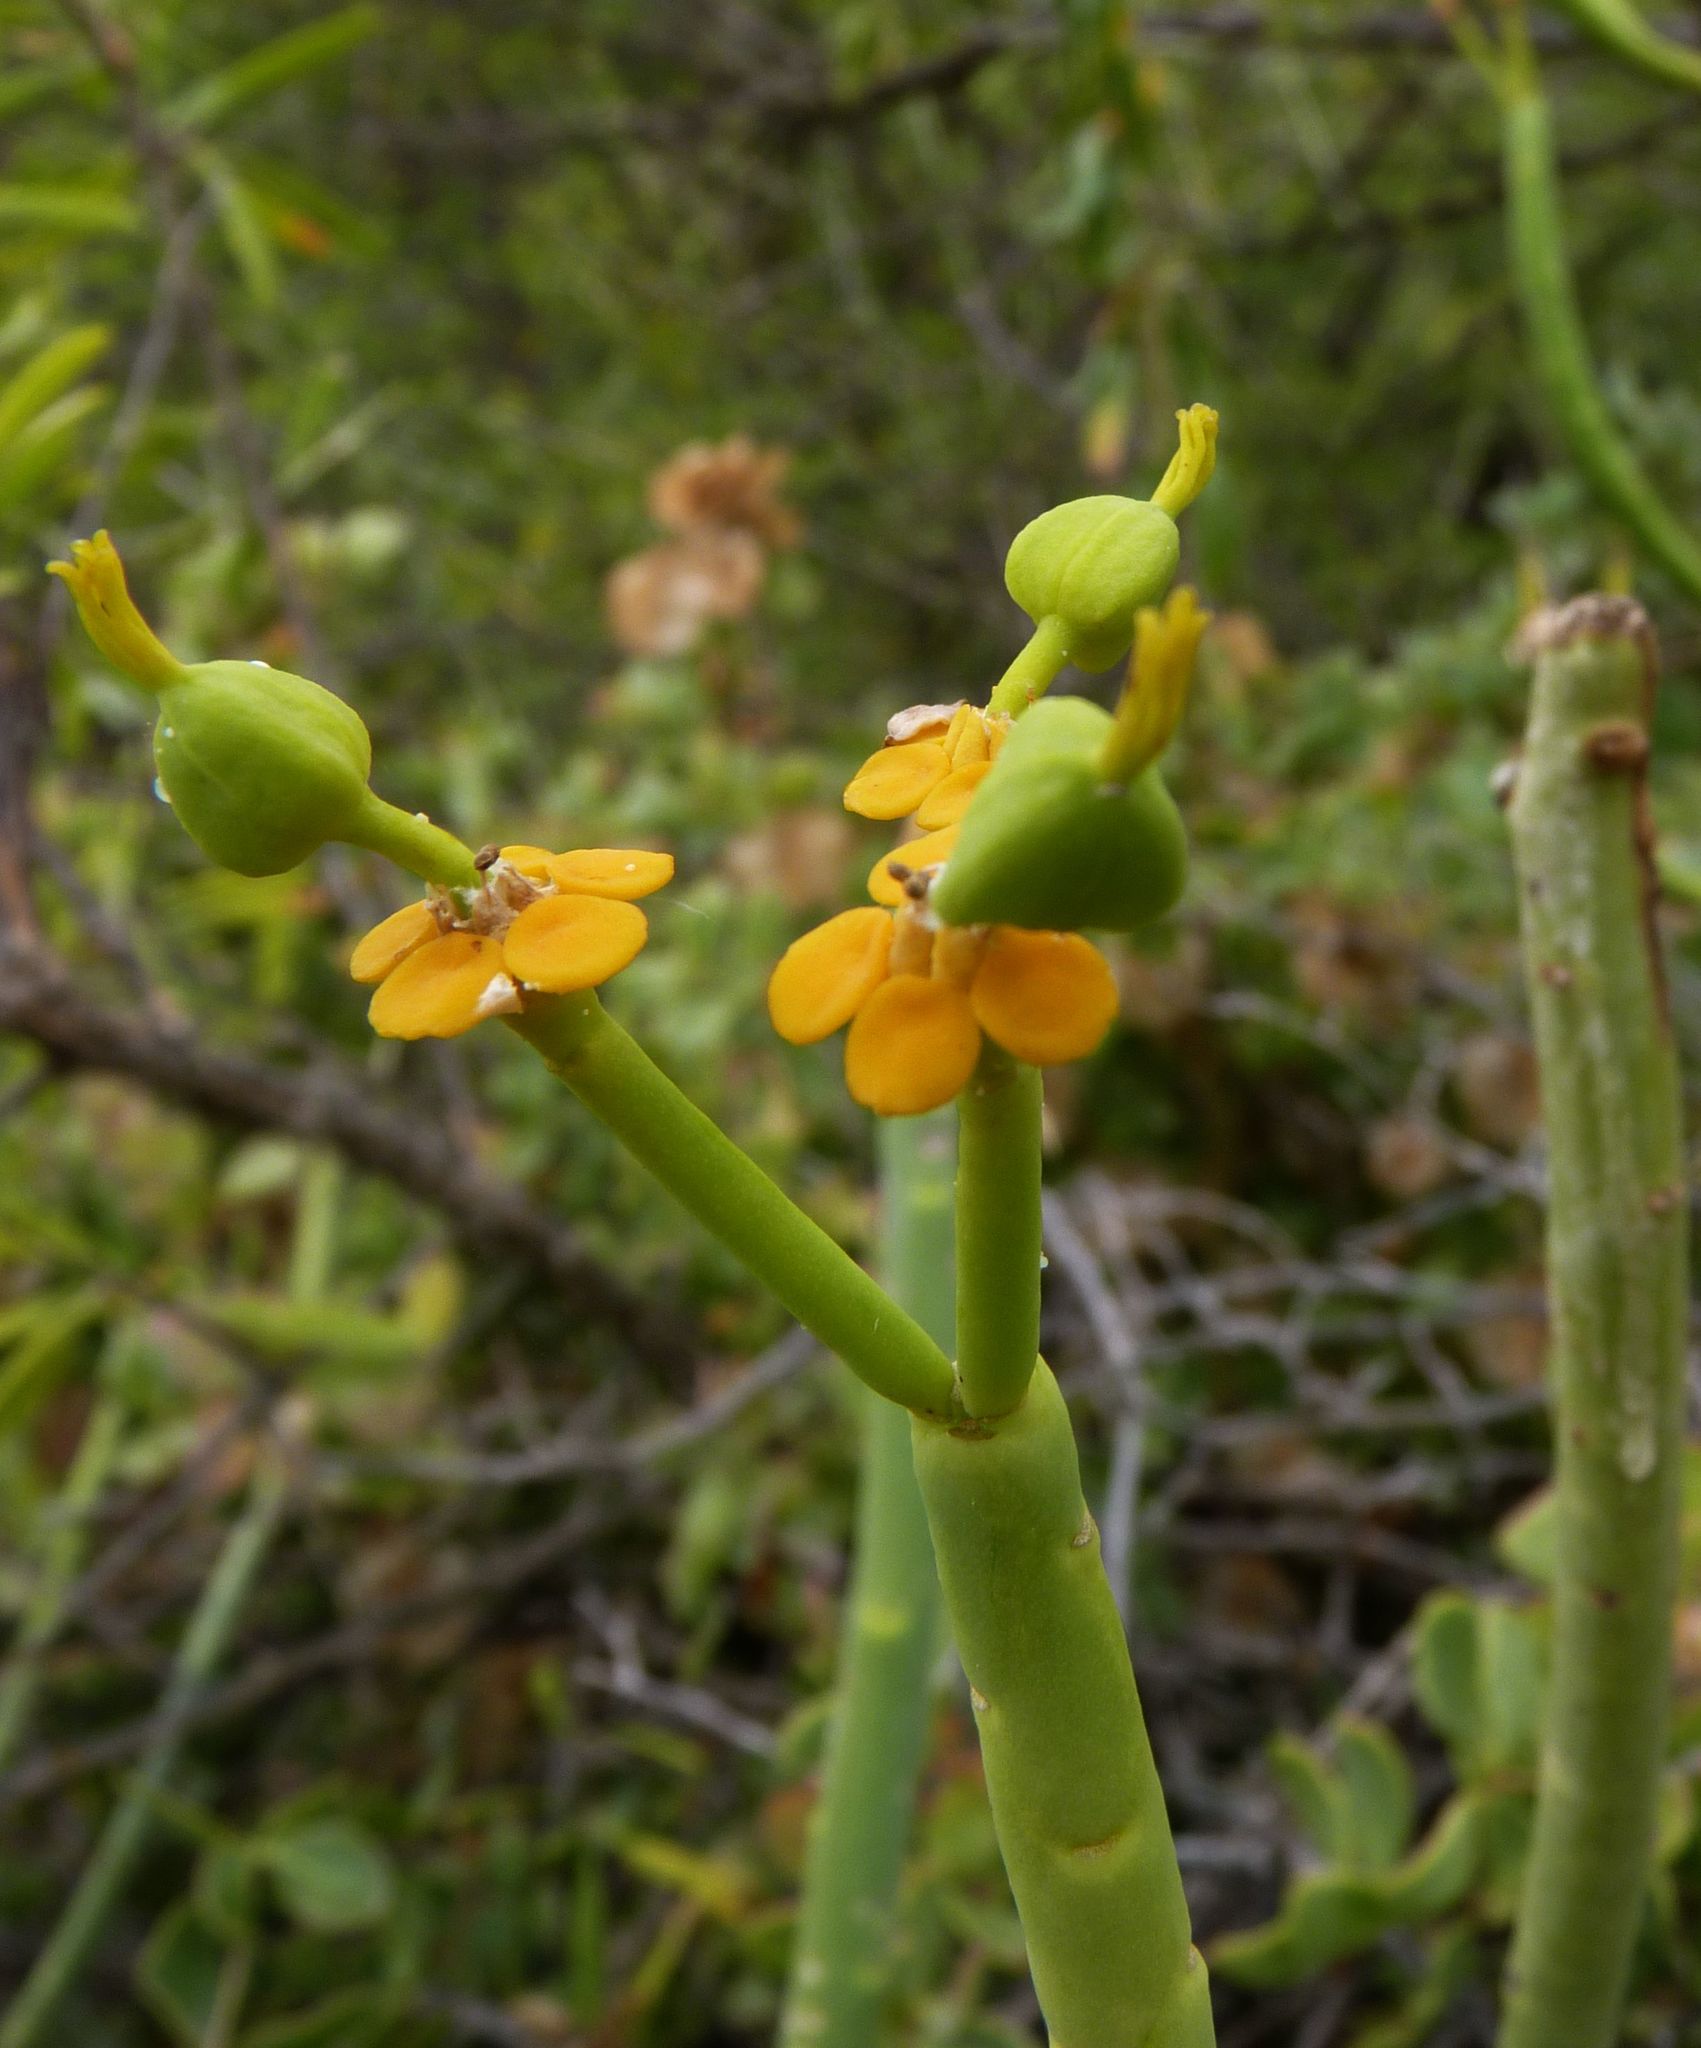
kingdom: Plantae
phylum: Tracheophyta
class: Magnoliopsida
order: Malpighiales
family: Euphorbiaceae
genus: Euphorbia
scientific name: Euphorbia mauritanica
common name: Jackal's-food
